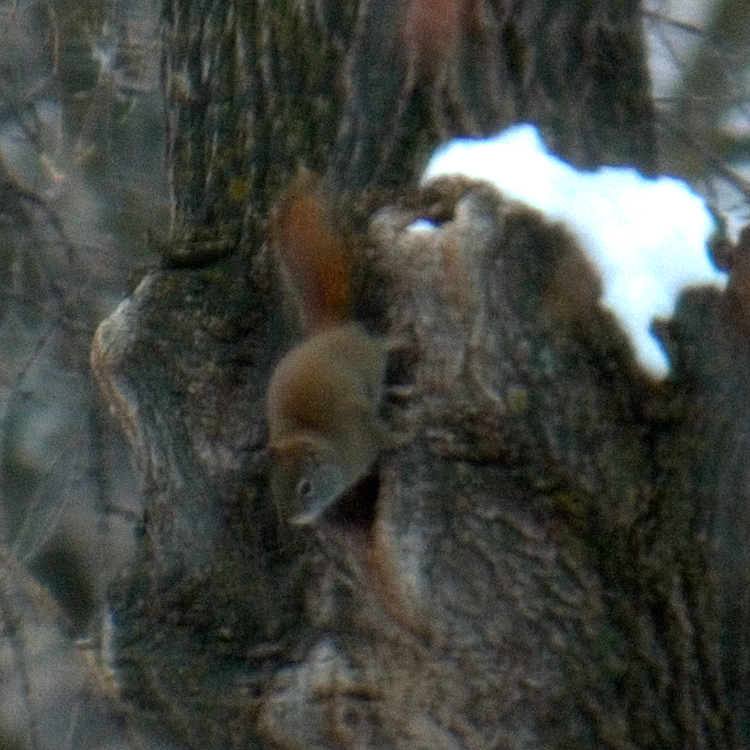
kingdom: Animalia
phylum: Chordata
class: Mammalia
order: Rodentia
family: Sciuridae
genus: Tamiasciurus
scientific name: Tamiasciurus hudsonicus
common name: Red squirrel
